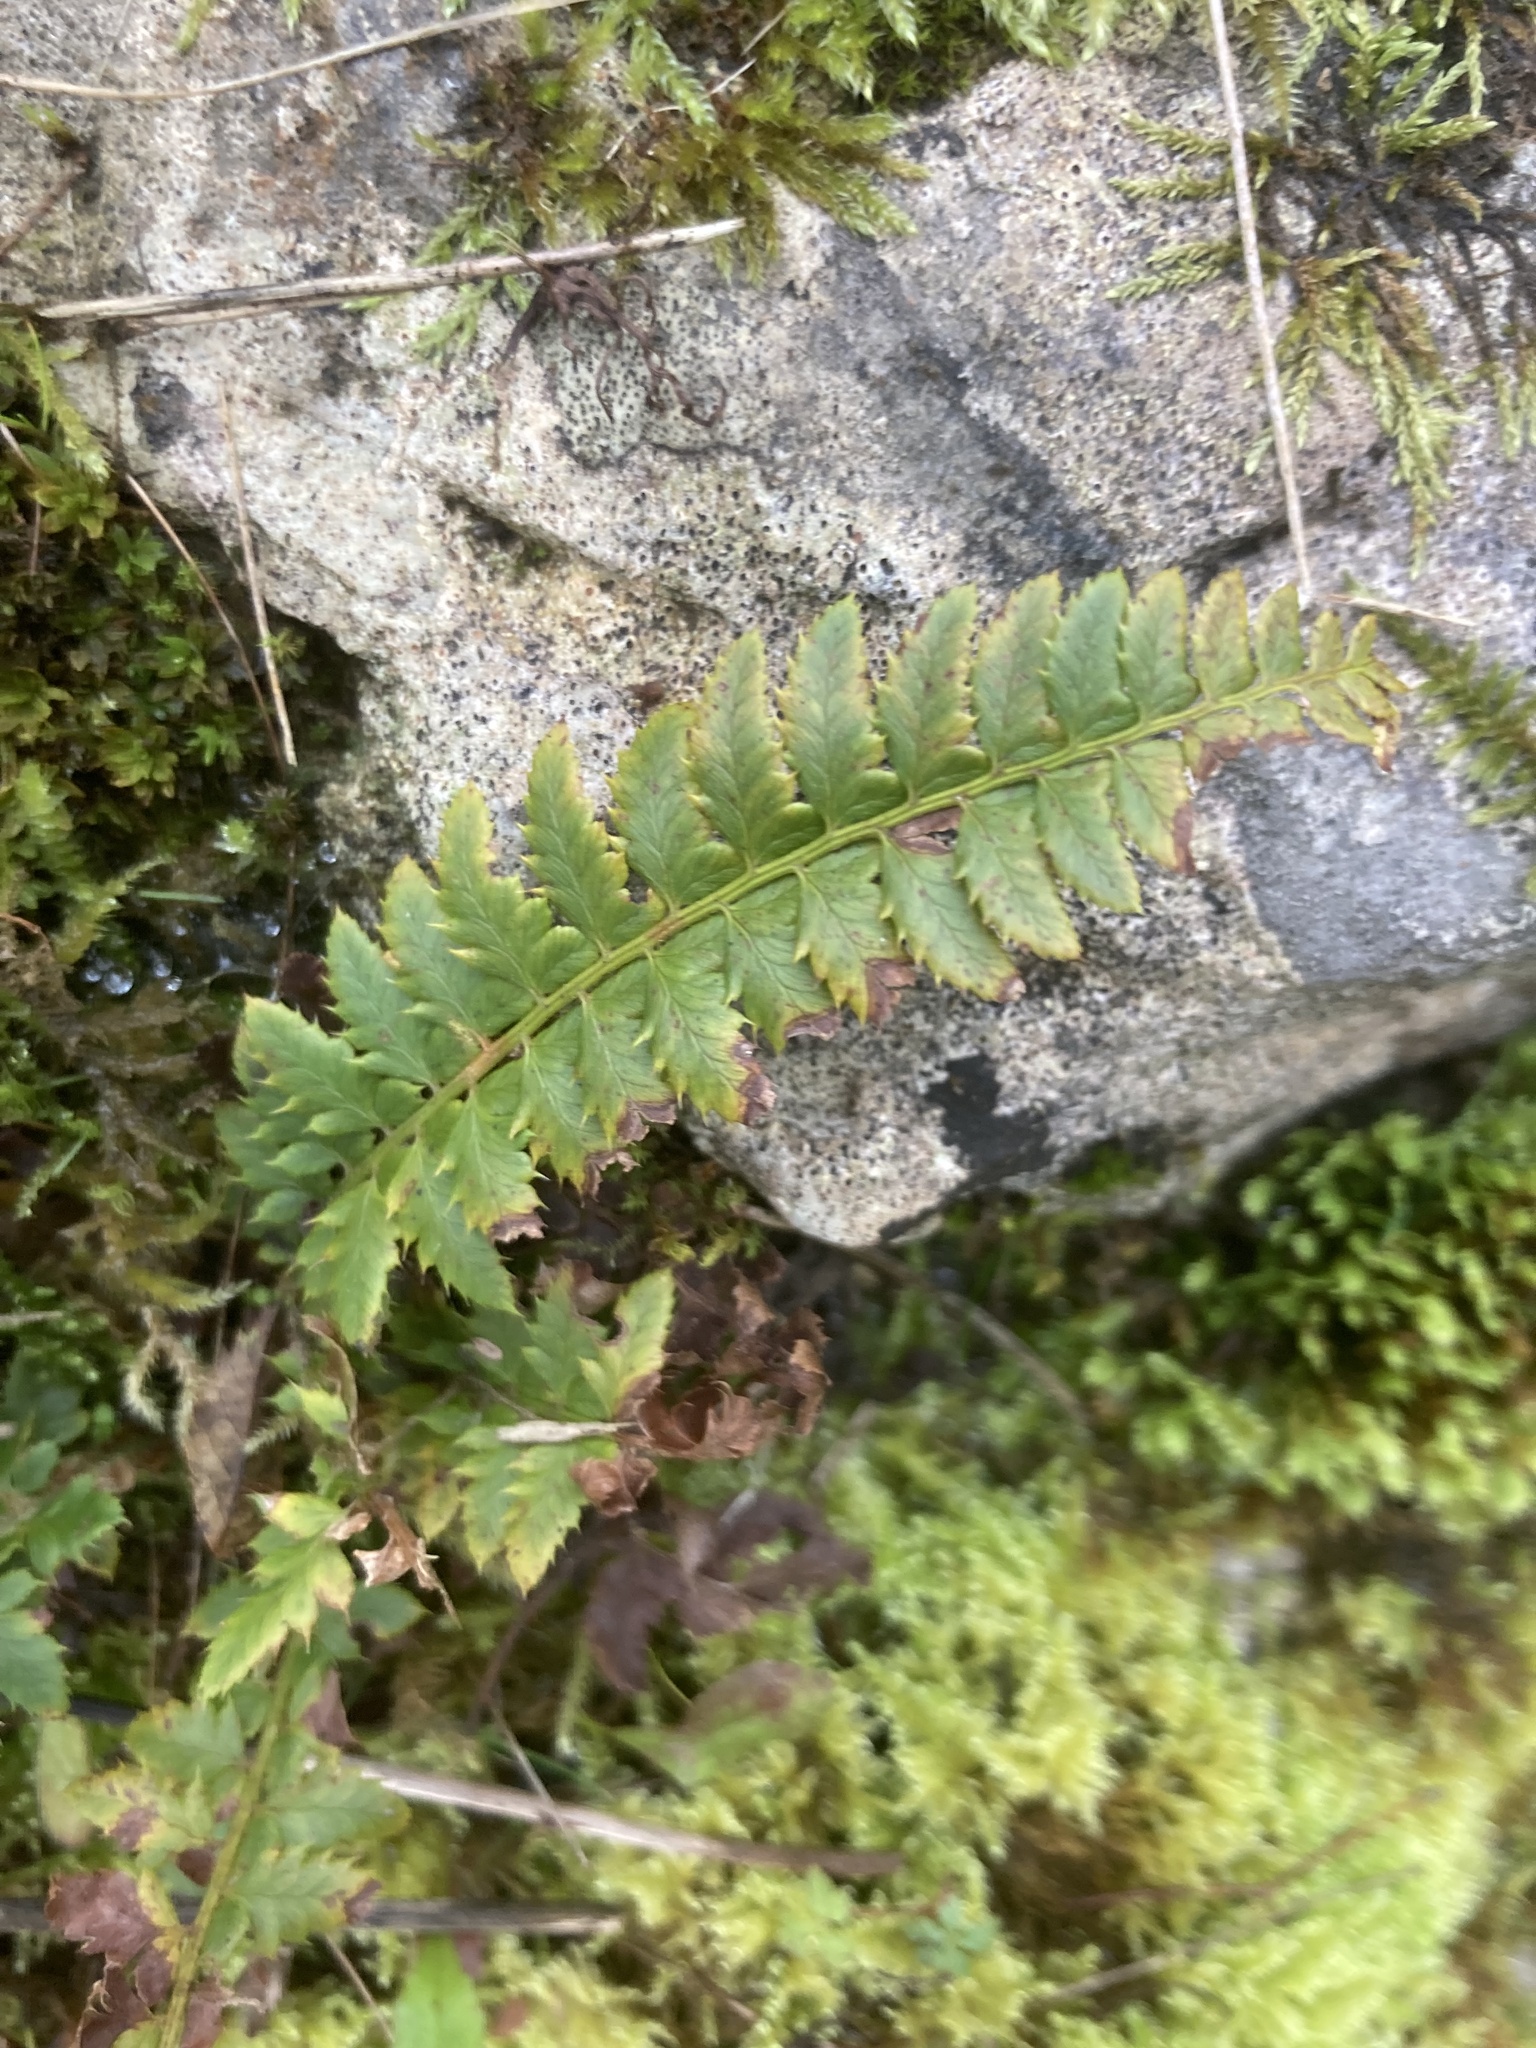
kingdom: Plantae
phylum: Tracheophyta
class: Polypodiopsida
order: Polypodiales
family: Dryopteridaceae
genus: Polystichum
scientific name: Polystichum aculeatum
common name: Hard shield-fern
